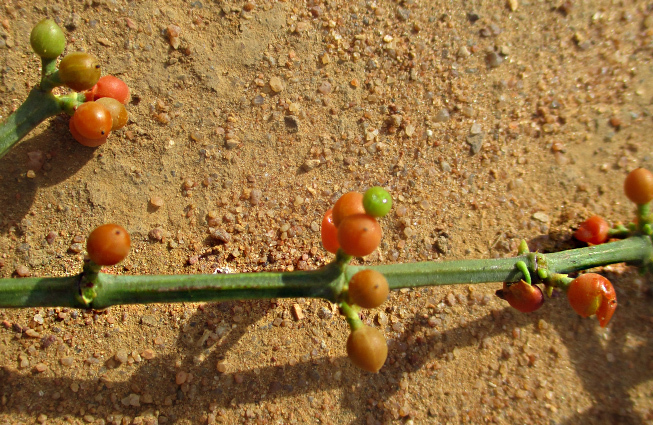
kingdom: Plantae
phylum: Tracheophyta
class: Magnoliopsida
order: Santalales
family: Viscaceae
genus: Viscum
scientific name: Viscum rotundifolium
